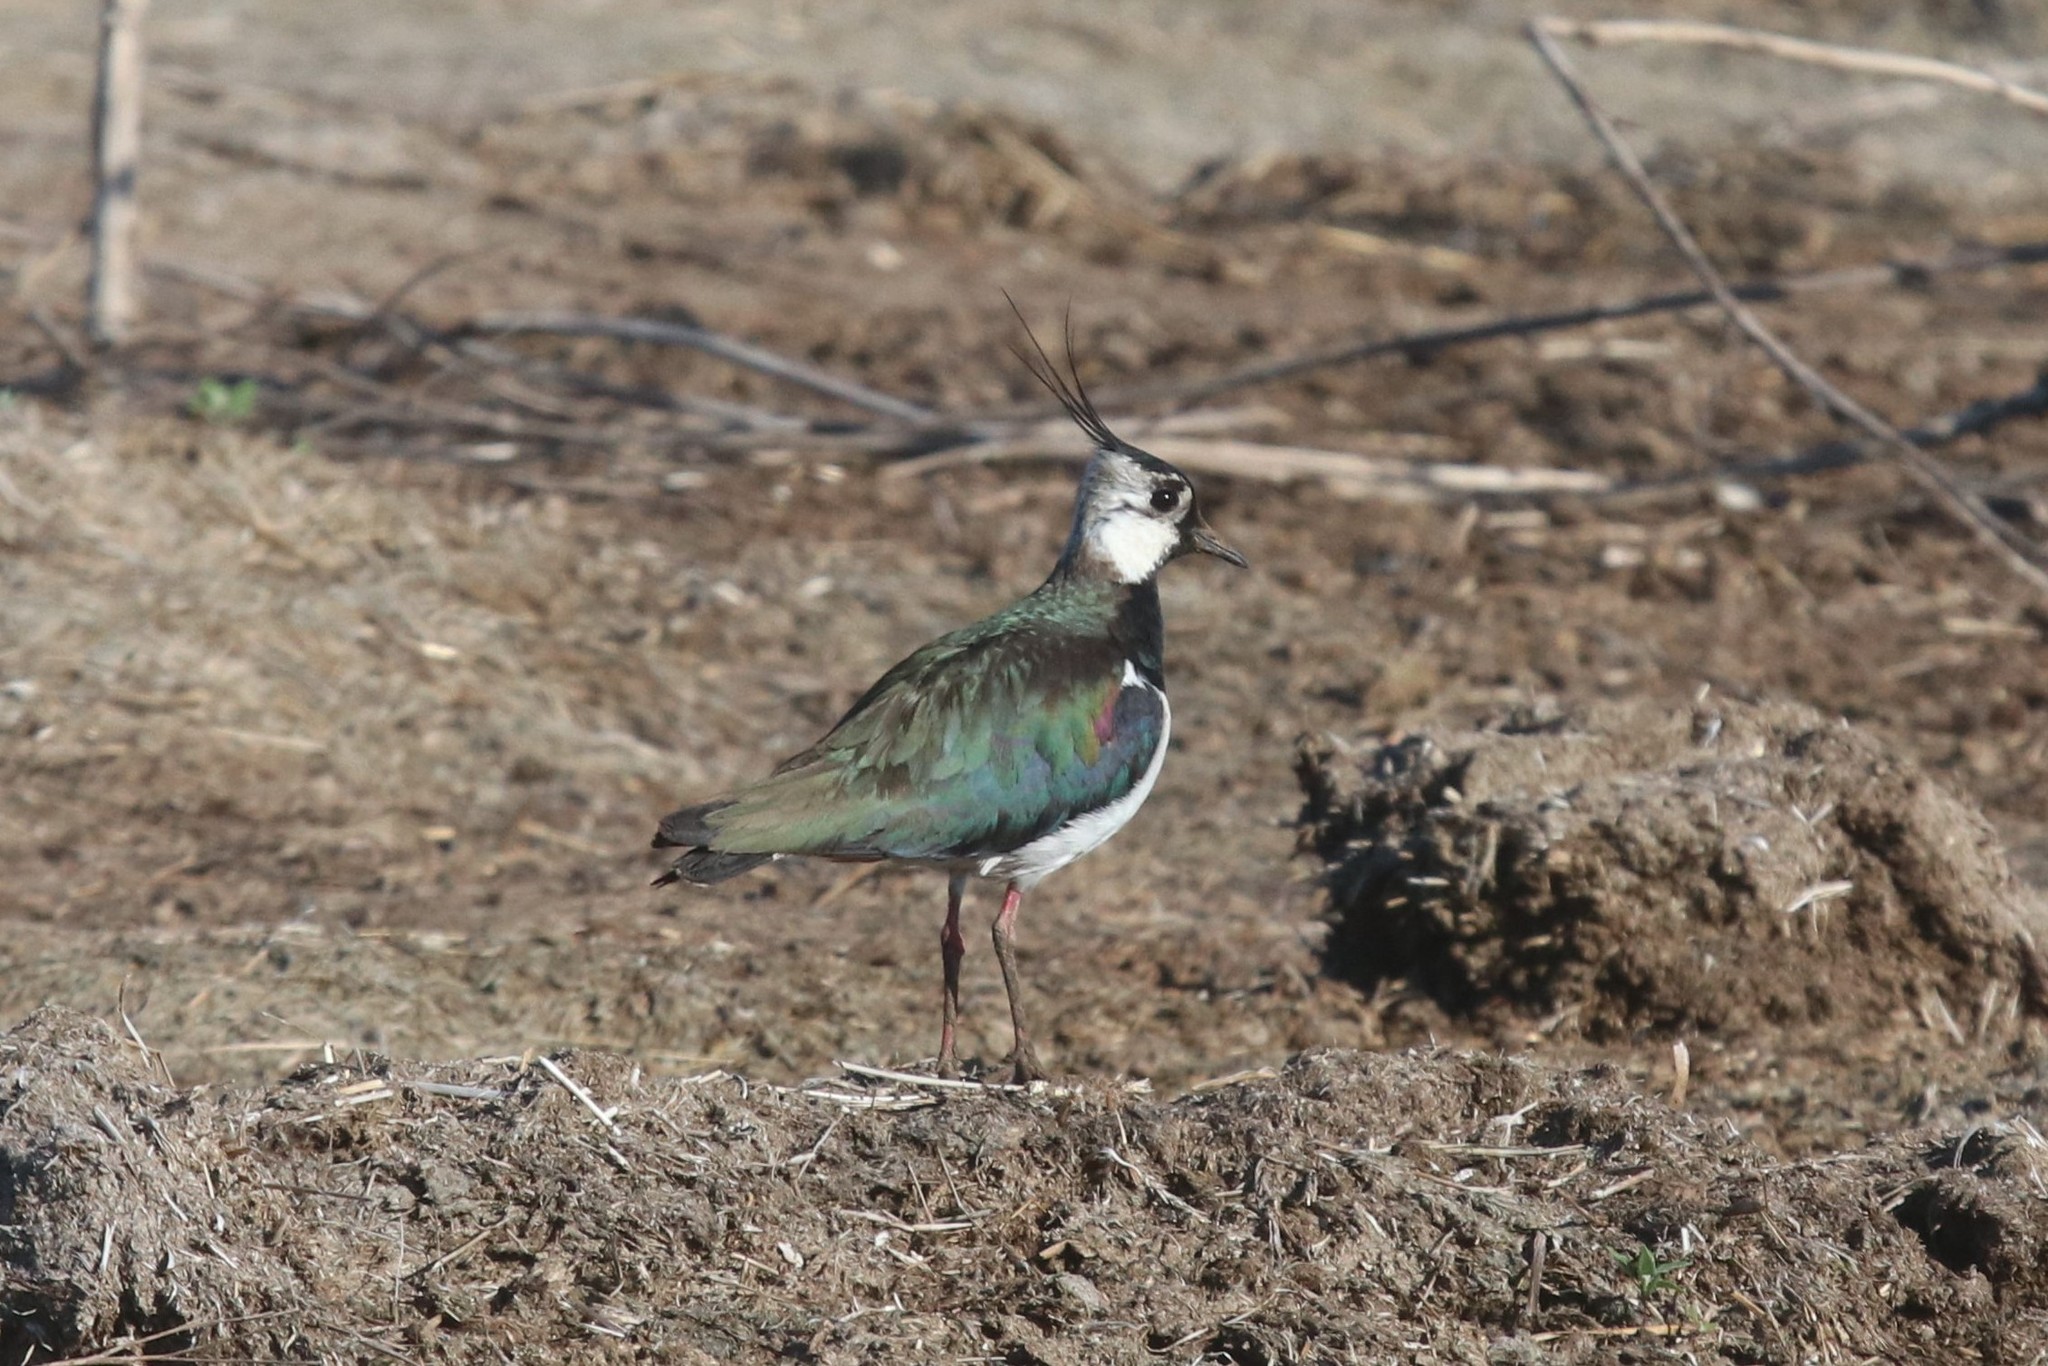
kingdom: Animalia
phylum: Chordata
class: Aves
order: Charadriiformes
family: Charadriidae
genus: Vanellus
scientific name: Vanellus vanellus
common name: Northern lapwing
